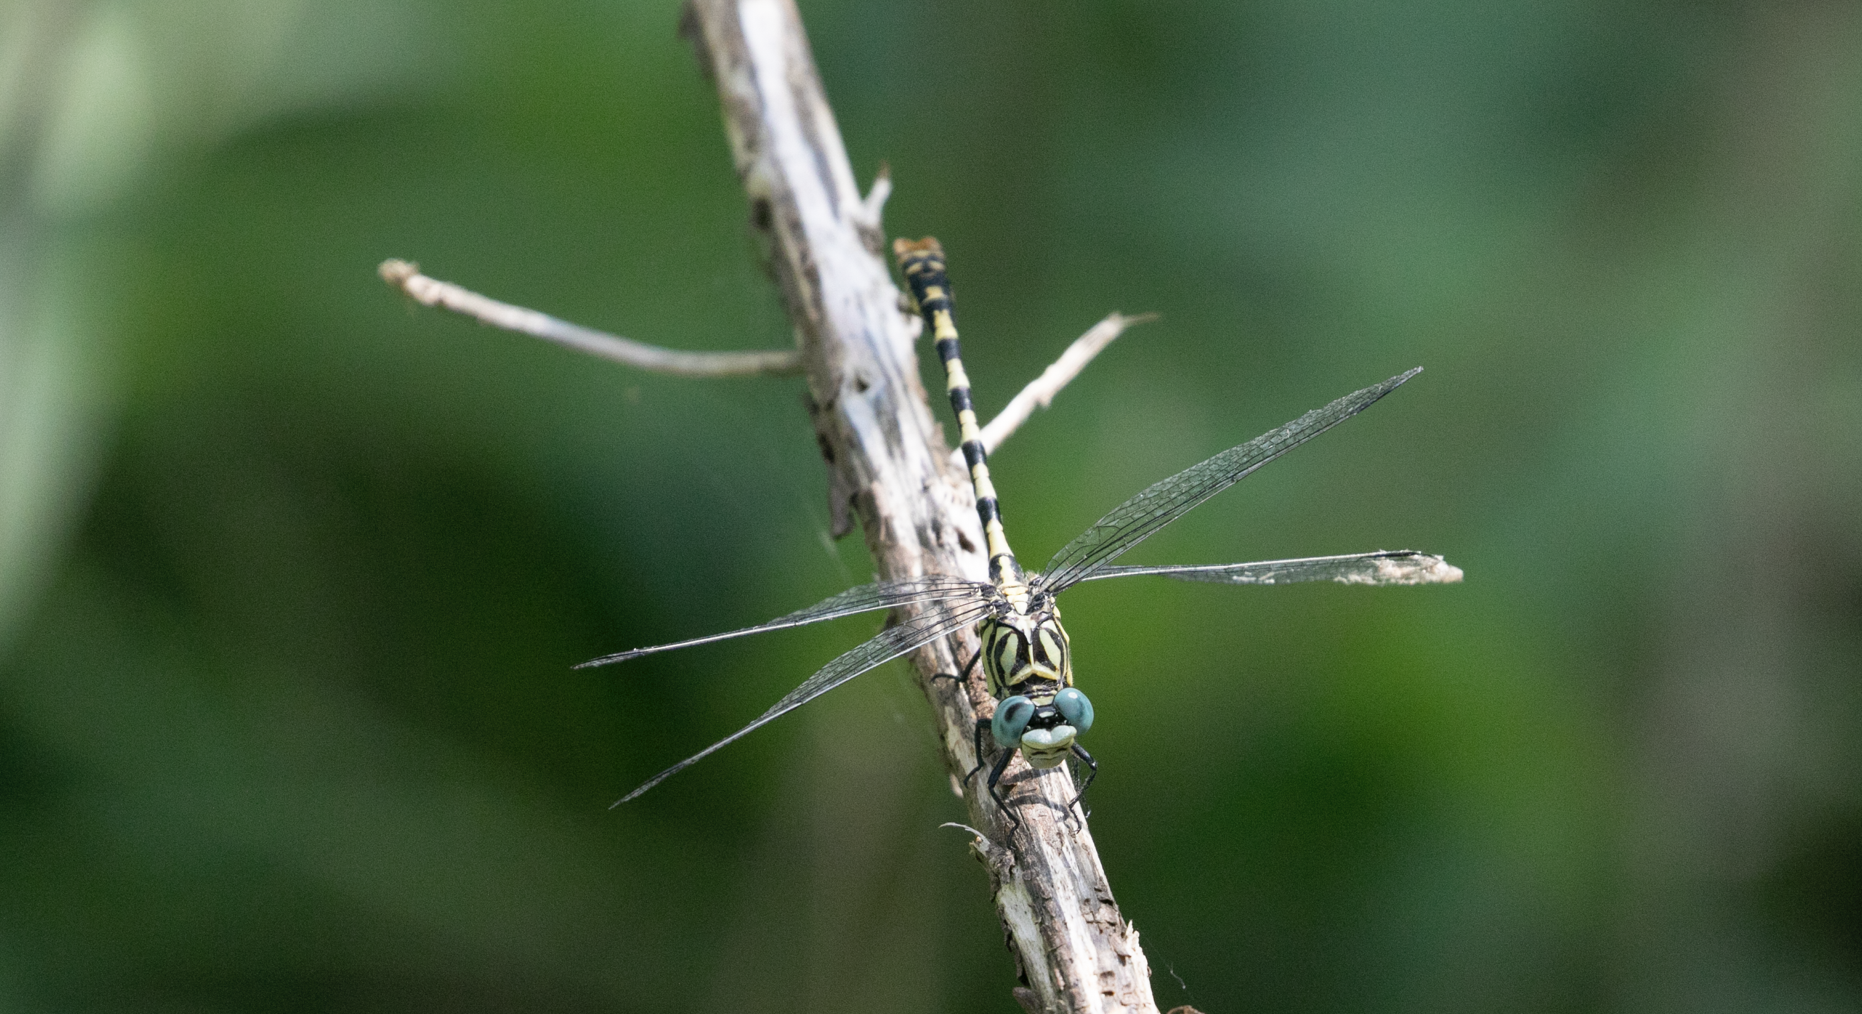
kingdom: Animalia
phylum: Arthropoda
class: Insecta
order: Odonata
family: Gomphidae
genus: Onychogomphus
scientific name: Onychogomphus forcipatus
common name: Small pincertail
